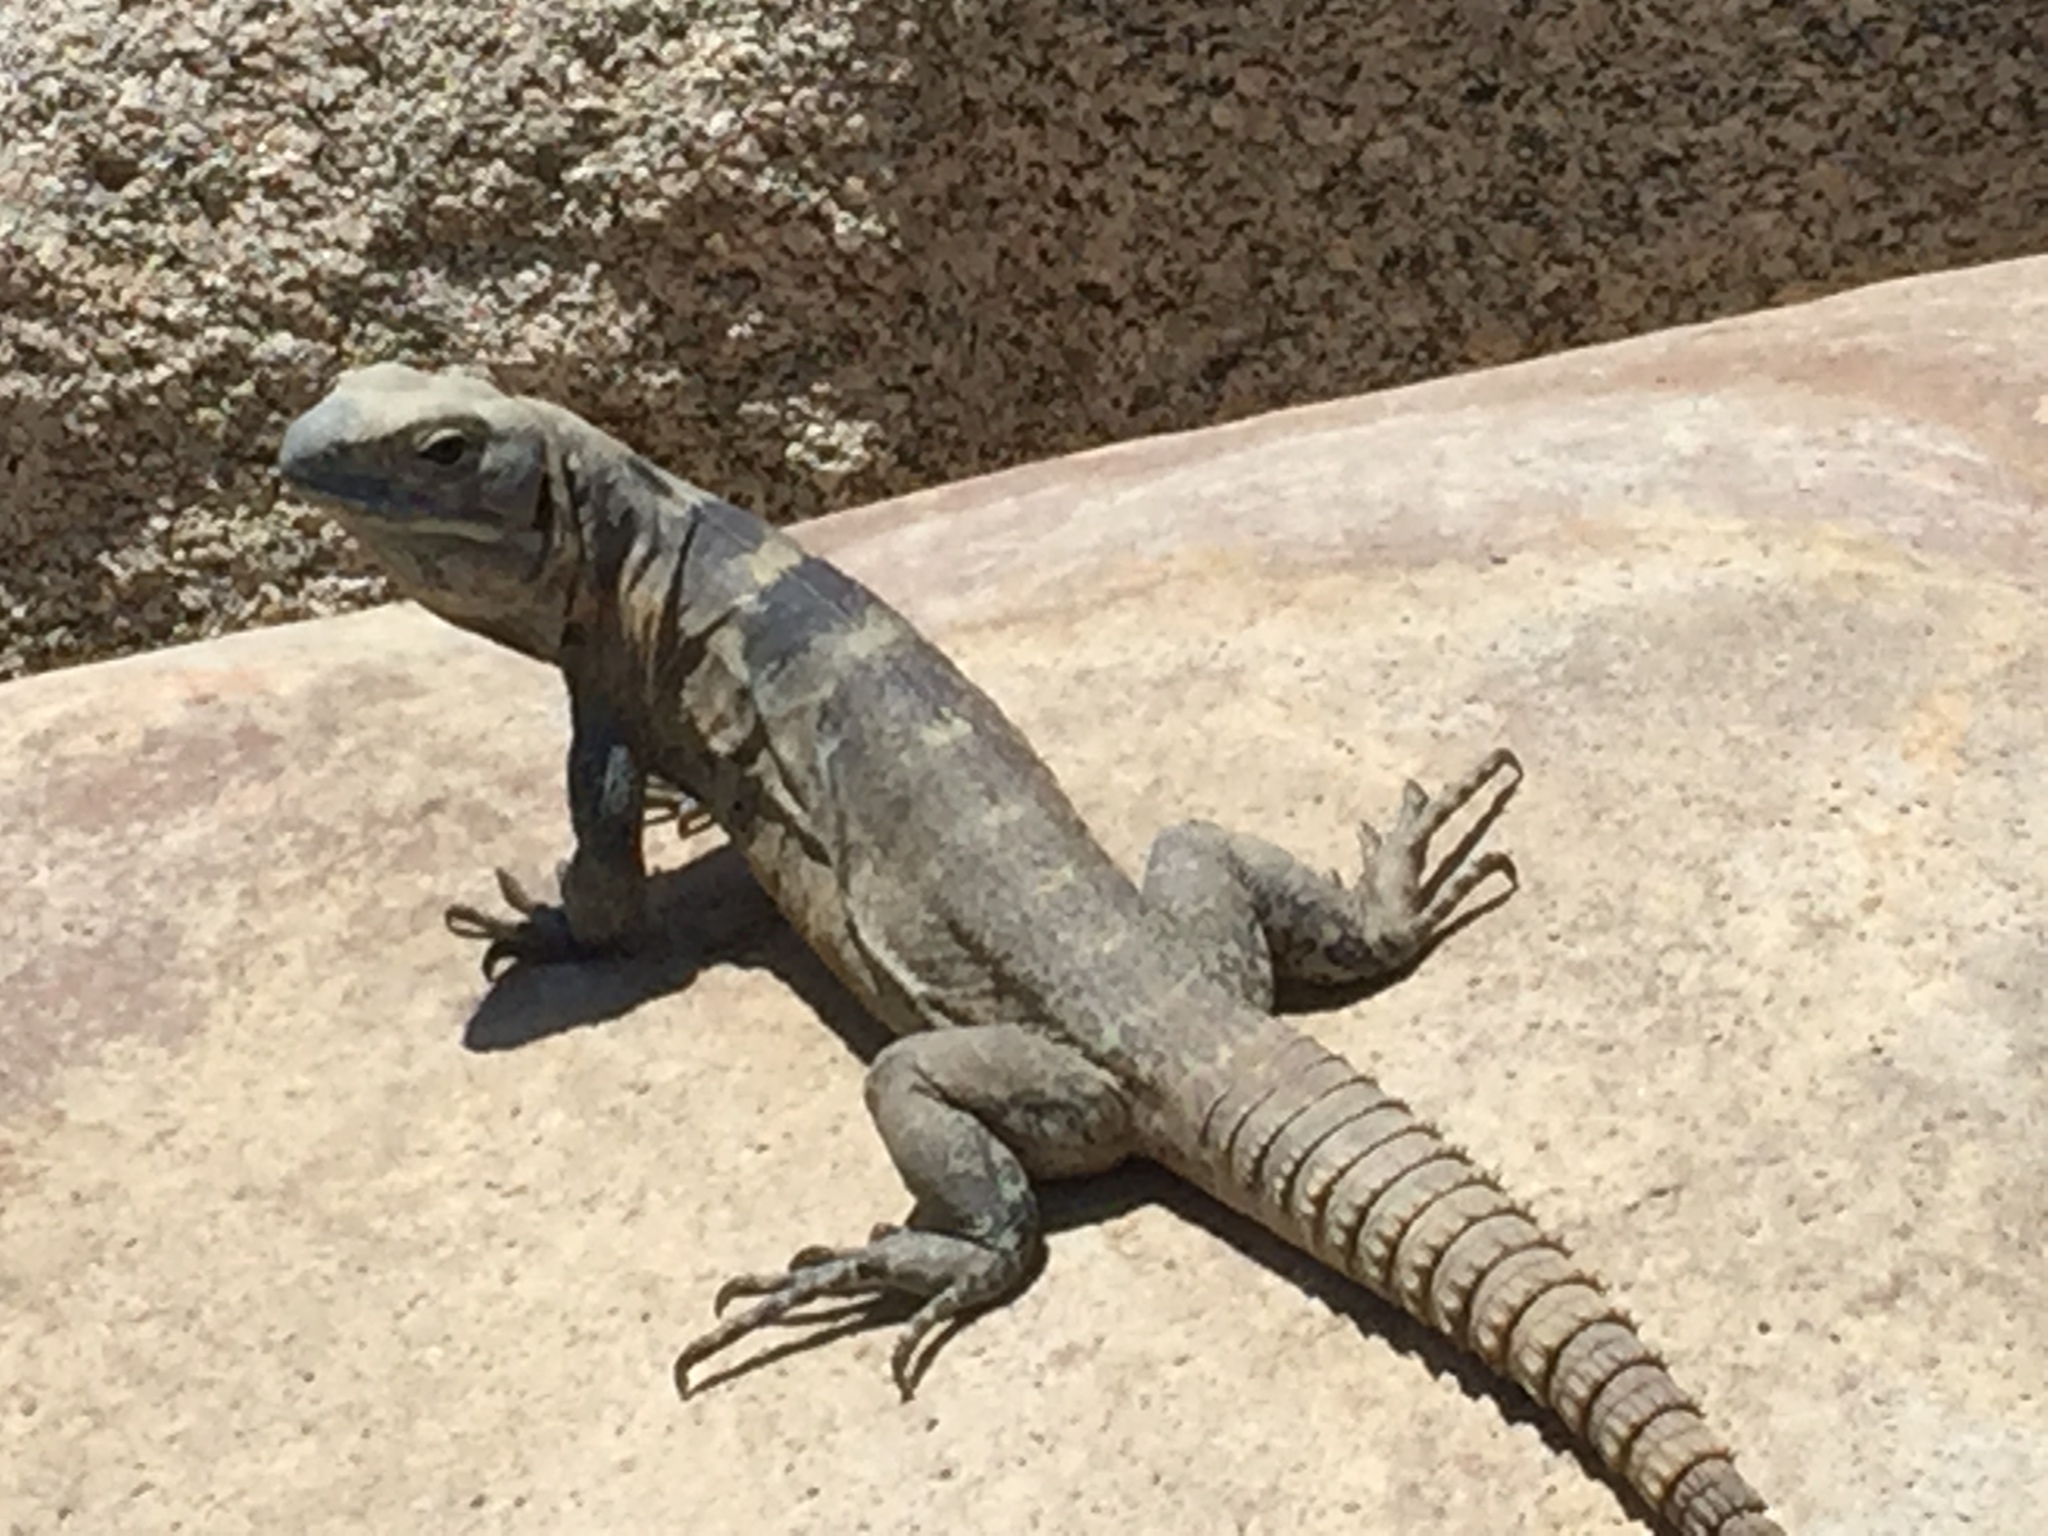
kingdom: Animalia
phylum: Chordata
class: Squamata
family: Iguanidae
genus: Ctenosaura
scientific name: Ctenosaura hemilopha
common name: Baja california spiny- tailed iguana
